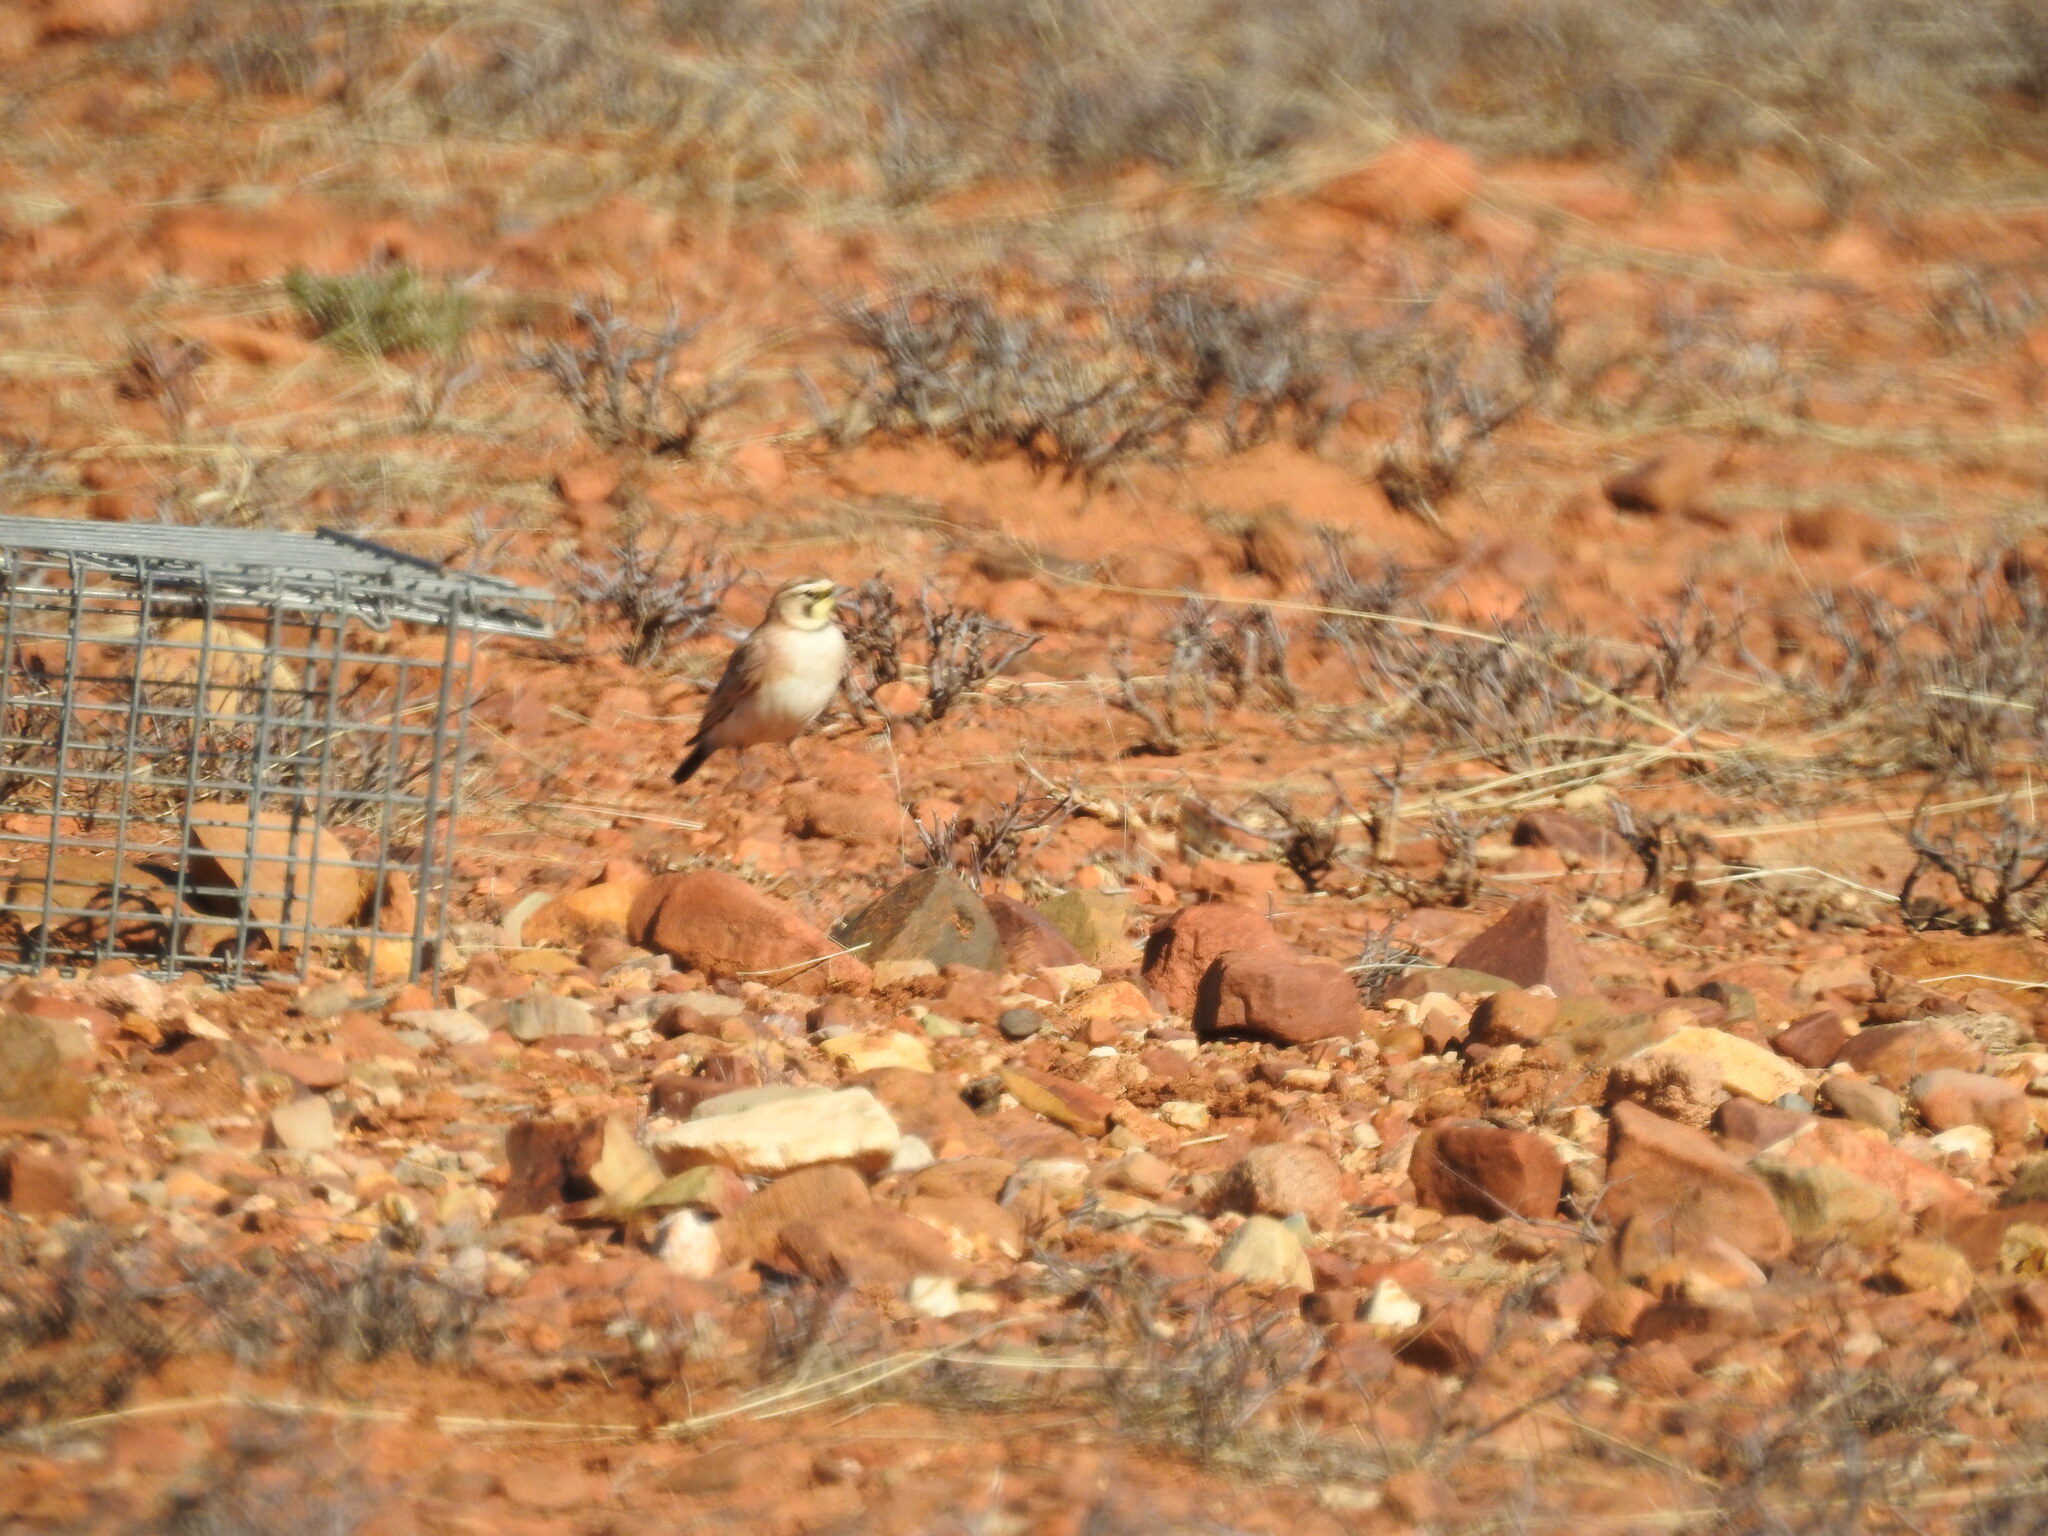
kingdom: Animalia
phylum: Chordata
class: Aves
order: Passeriformes
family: Alaudidae
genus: Eremophila
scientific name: Eremophila alpestris
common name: Horned lark
